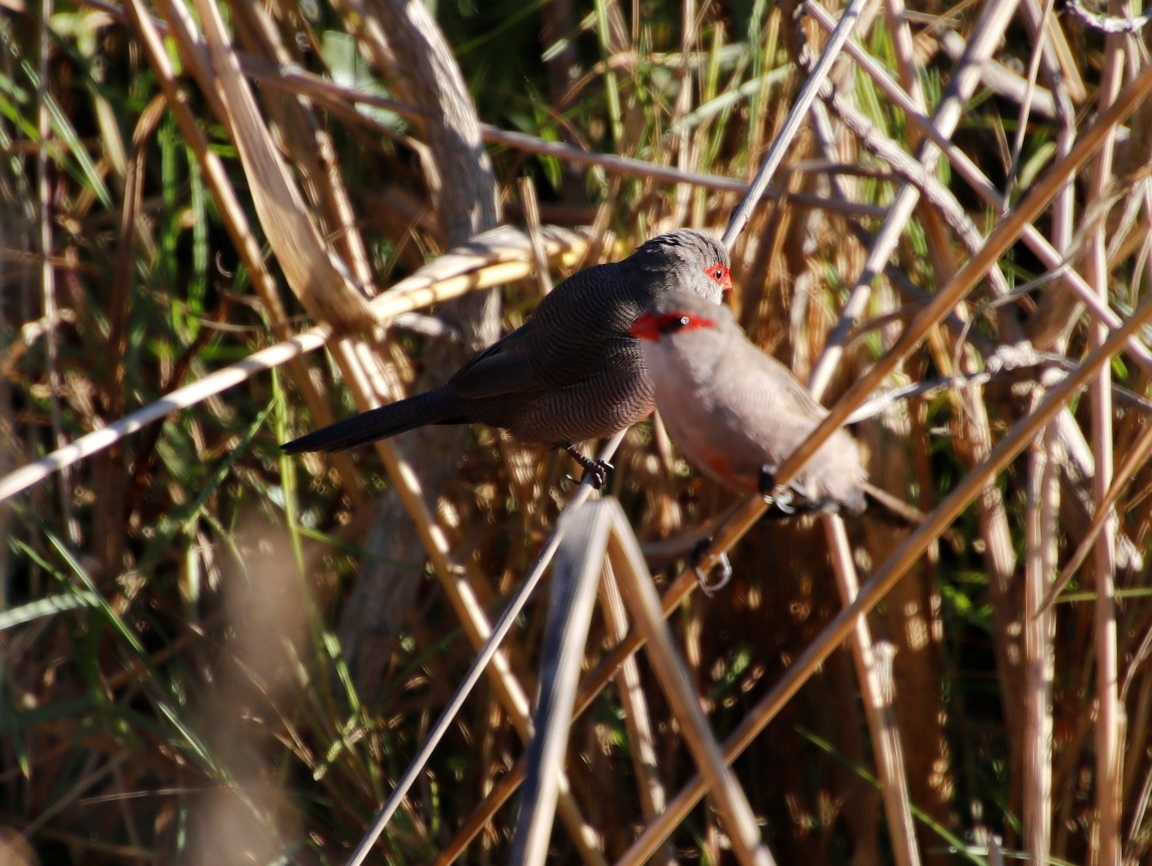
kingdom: Animalia
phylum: Chordata
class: Aves
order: Passeriformes
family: Estrildidae
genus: Estrilda
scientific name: Estrilda astrild
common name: Common waxbill
